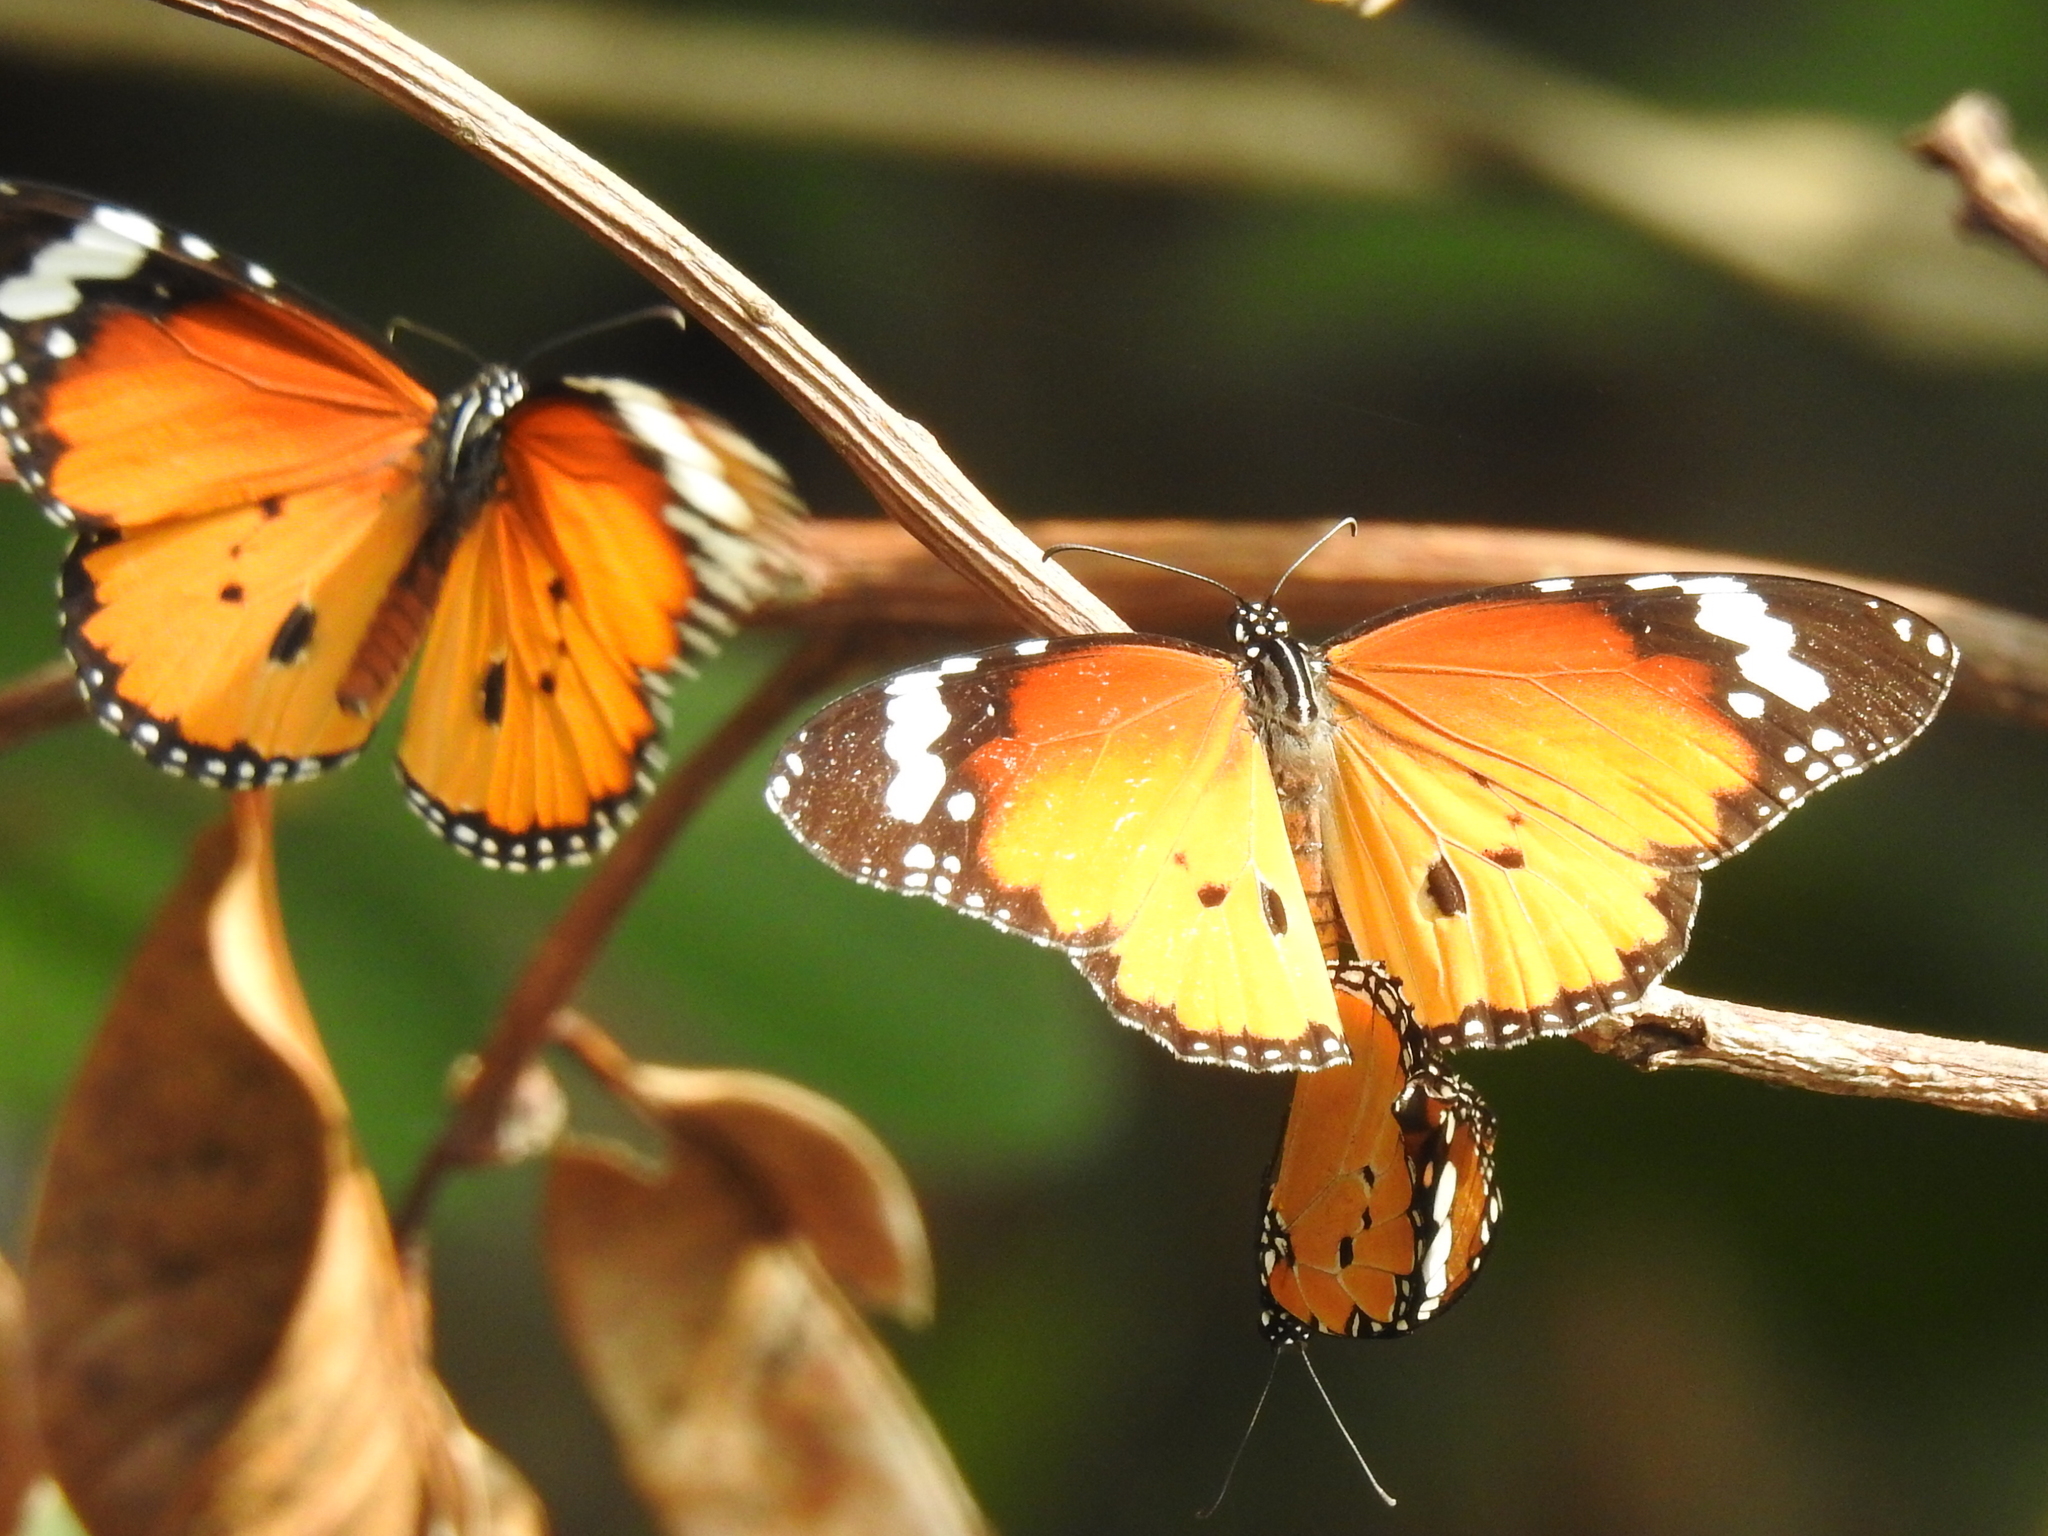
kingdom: Animalia
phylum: Arthropoda
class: Insecta
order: Lepidoptera
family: Nymphalidae
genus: Danaus
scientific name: Danaus chrysippus
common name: Plain tiger
